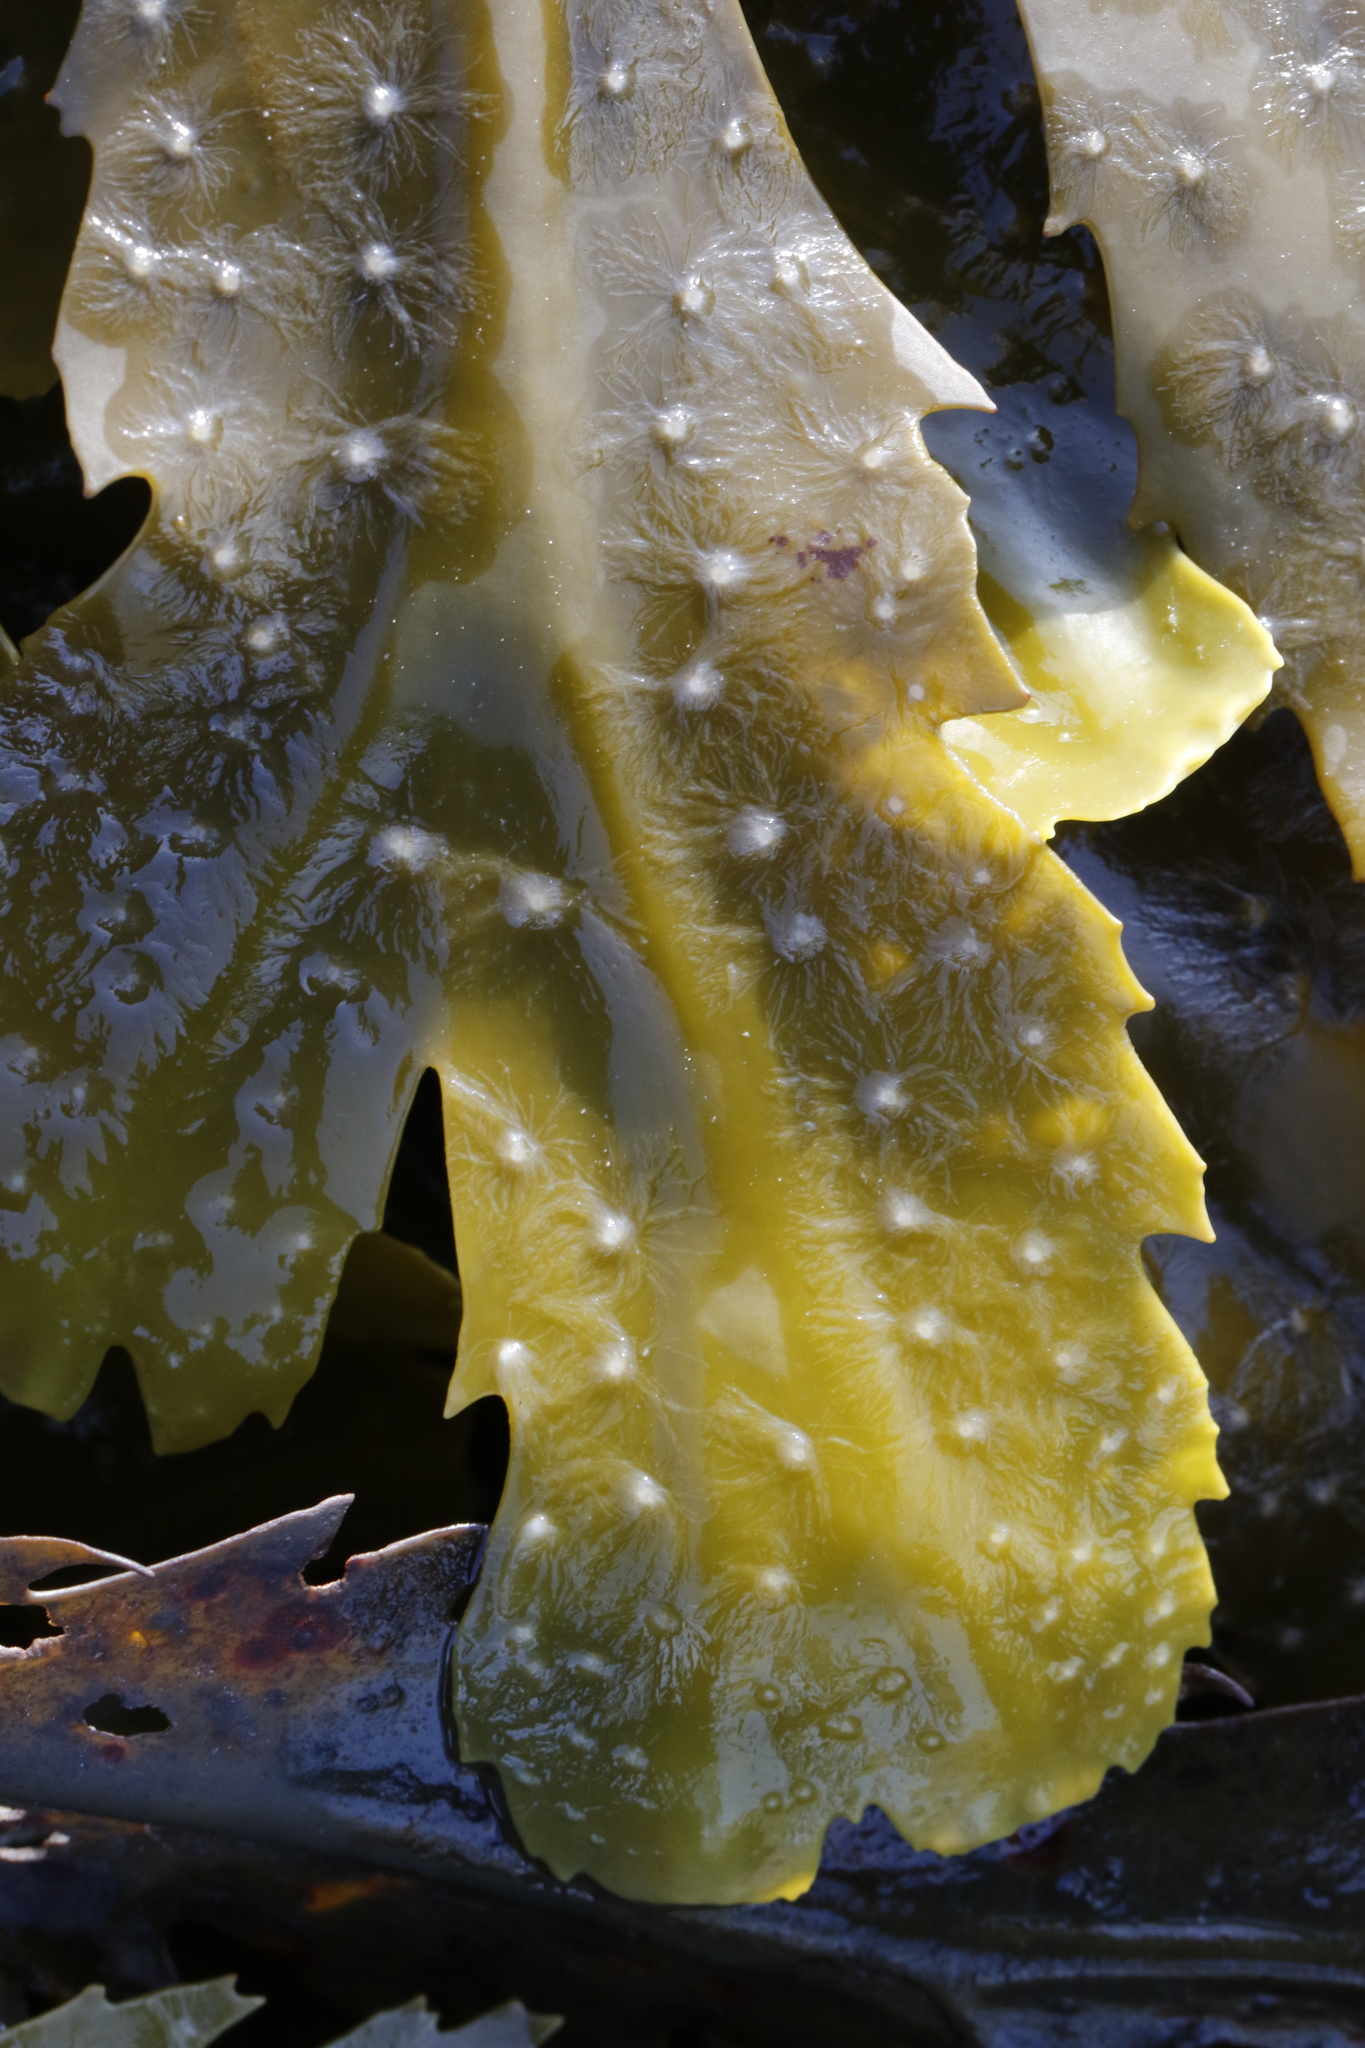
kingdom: Chromista
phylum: Ochrophyta
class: Phaeophyceae
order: Fucales
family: Fucaceae
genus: Fucus
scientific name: Fucus serratus
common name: Toothed wrack
